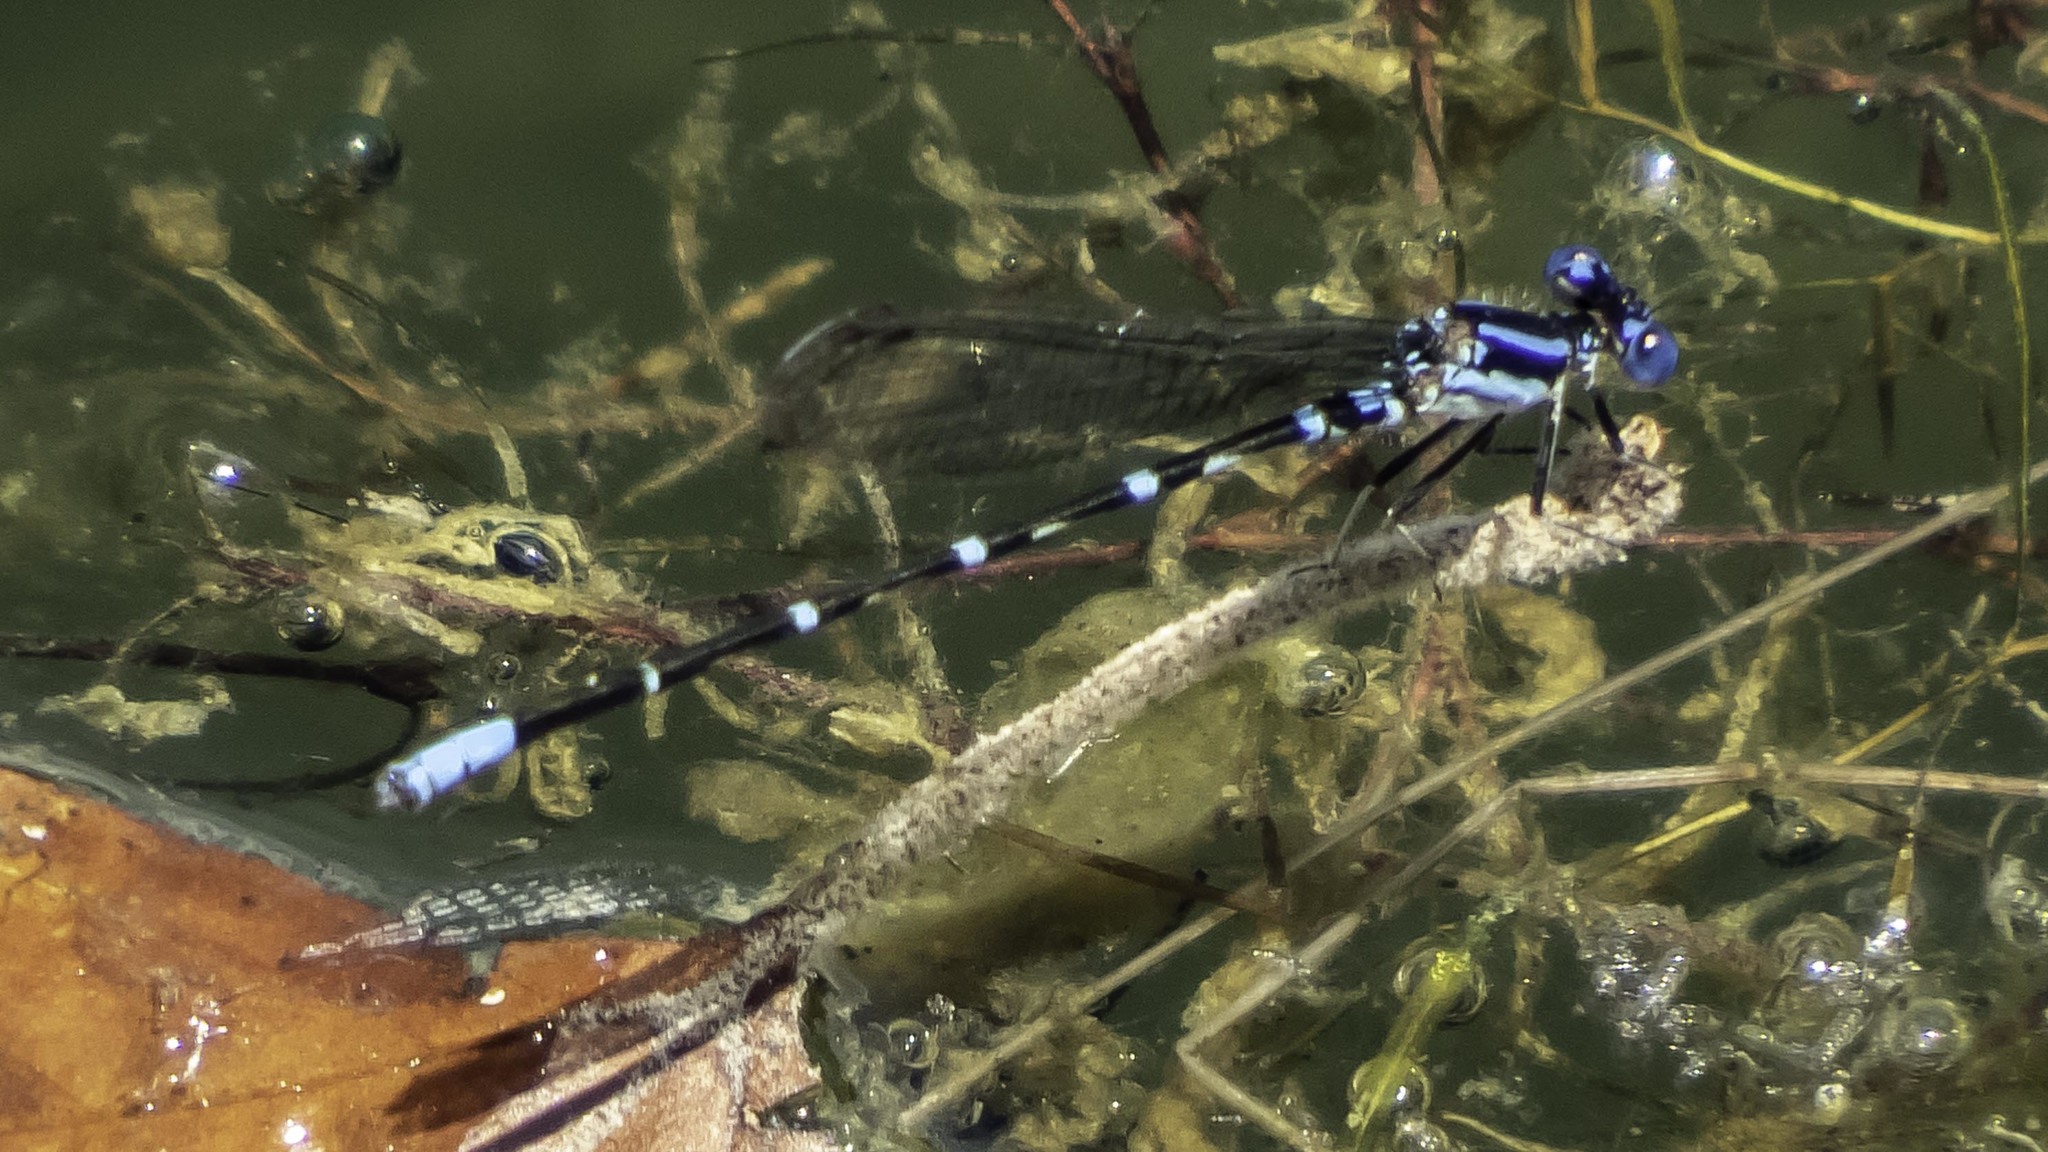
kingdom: Animalia
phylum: Arthropoda
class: Insecta
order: Odonata
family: Coenagrionidae
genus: Argia
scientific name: Argia sedula
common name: Blue-ringed dancer
